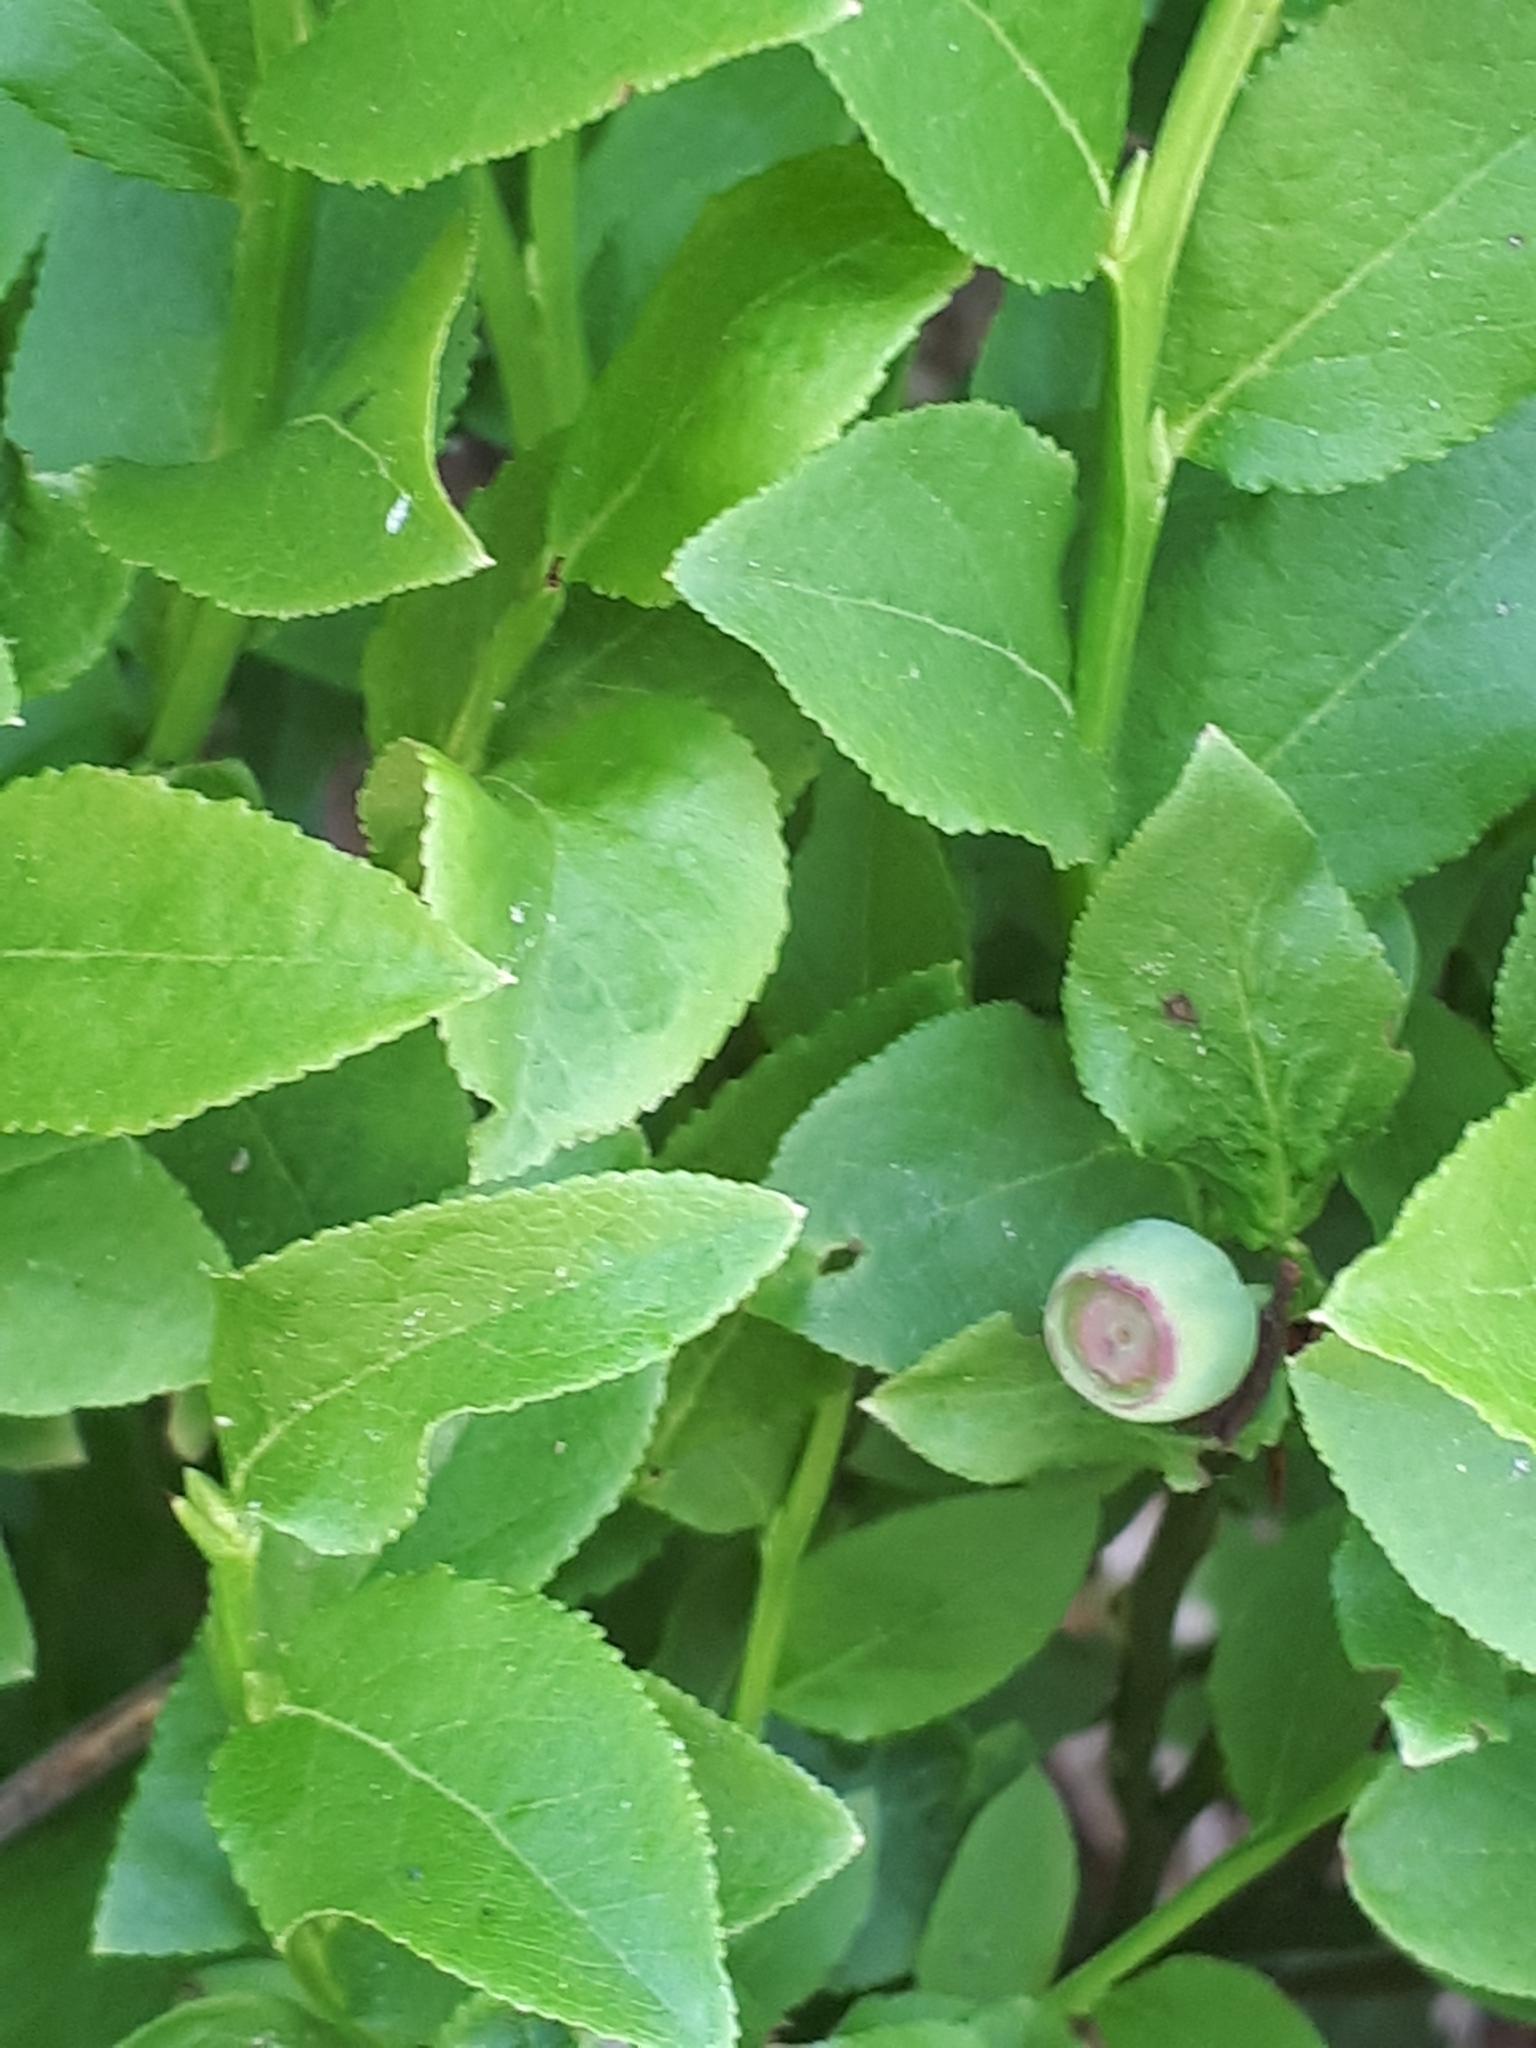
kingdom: Plantae
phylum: Tracheophyta
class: Magnoliopsida
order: Ericales
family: Ericaceae
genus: Vaccinium
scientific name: Vaccinium myrtillus
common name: Bilberry
